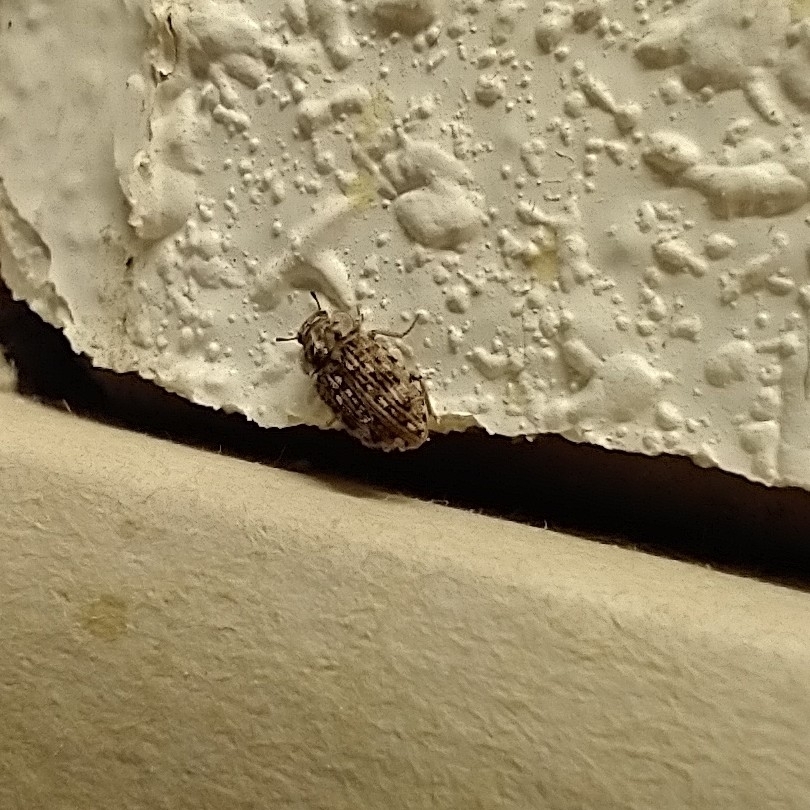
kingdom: Animalia
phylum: Arthropoda
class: Insecta
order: Coleoptera
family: Tenebrionidae
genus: Leichenum
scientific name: Leichenum canaliculatum
